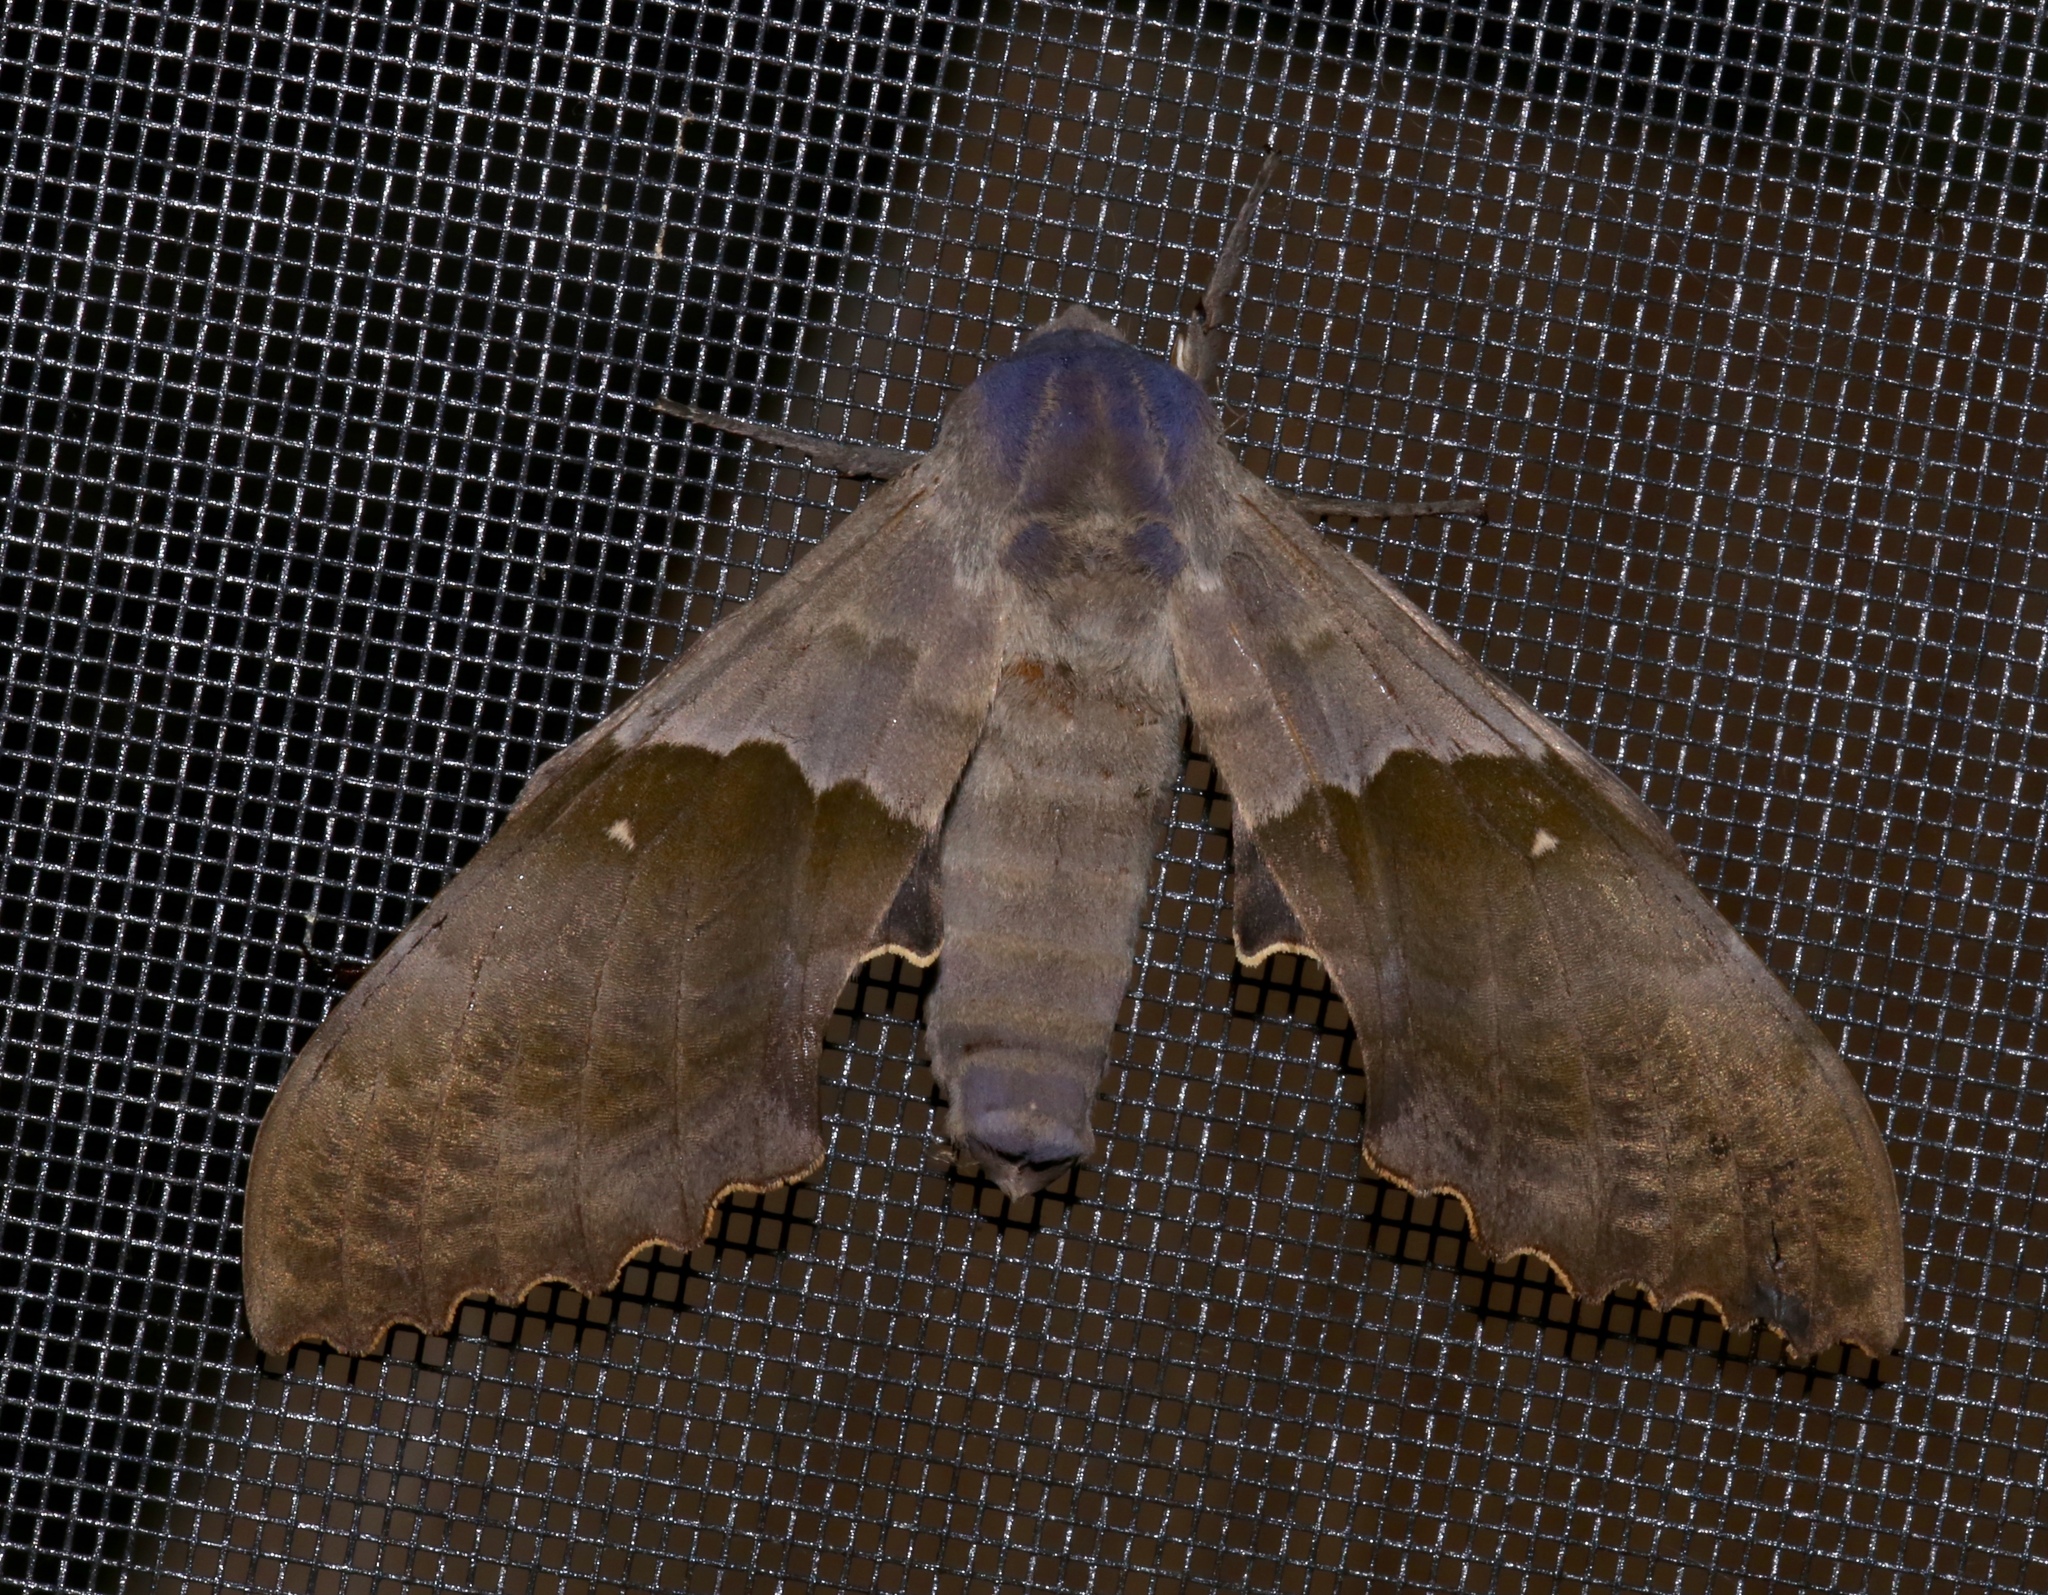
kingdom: Animalia
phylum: Arthropoda
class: Insecta
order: Lepidoptera
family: Sphingidae
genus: Pachysphinx
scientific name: Pachysphinx modesta
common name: Big poplar sphinx
